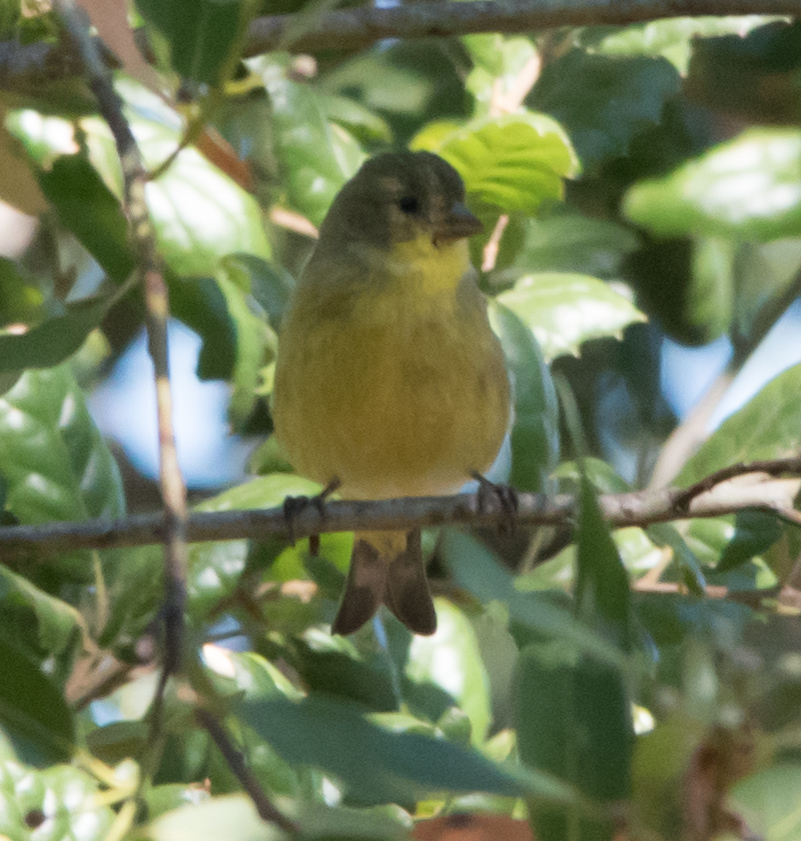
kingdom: Animalia
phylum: Chordata
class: Aves
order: Passeriformes
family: Fringillidae
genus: Spinus
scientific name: Spinus psaltria
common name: Lesser goldfinch
